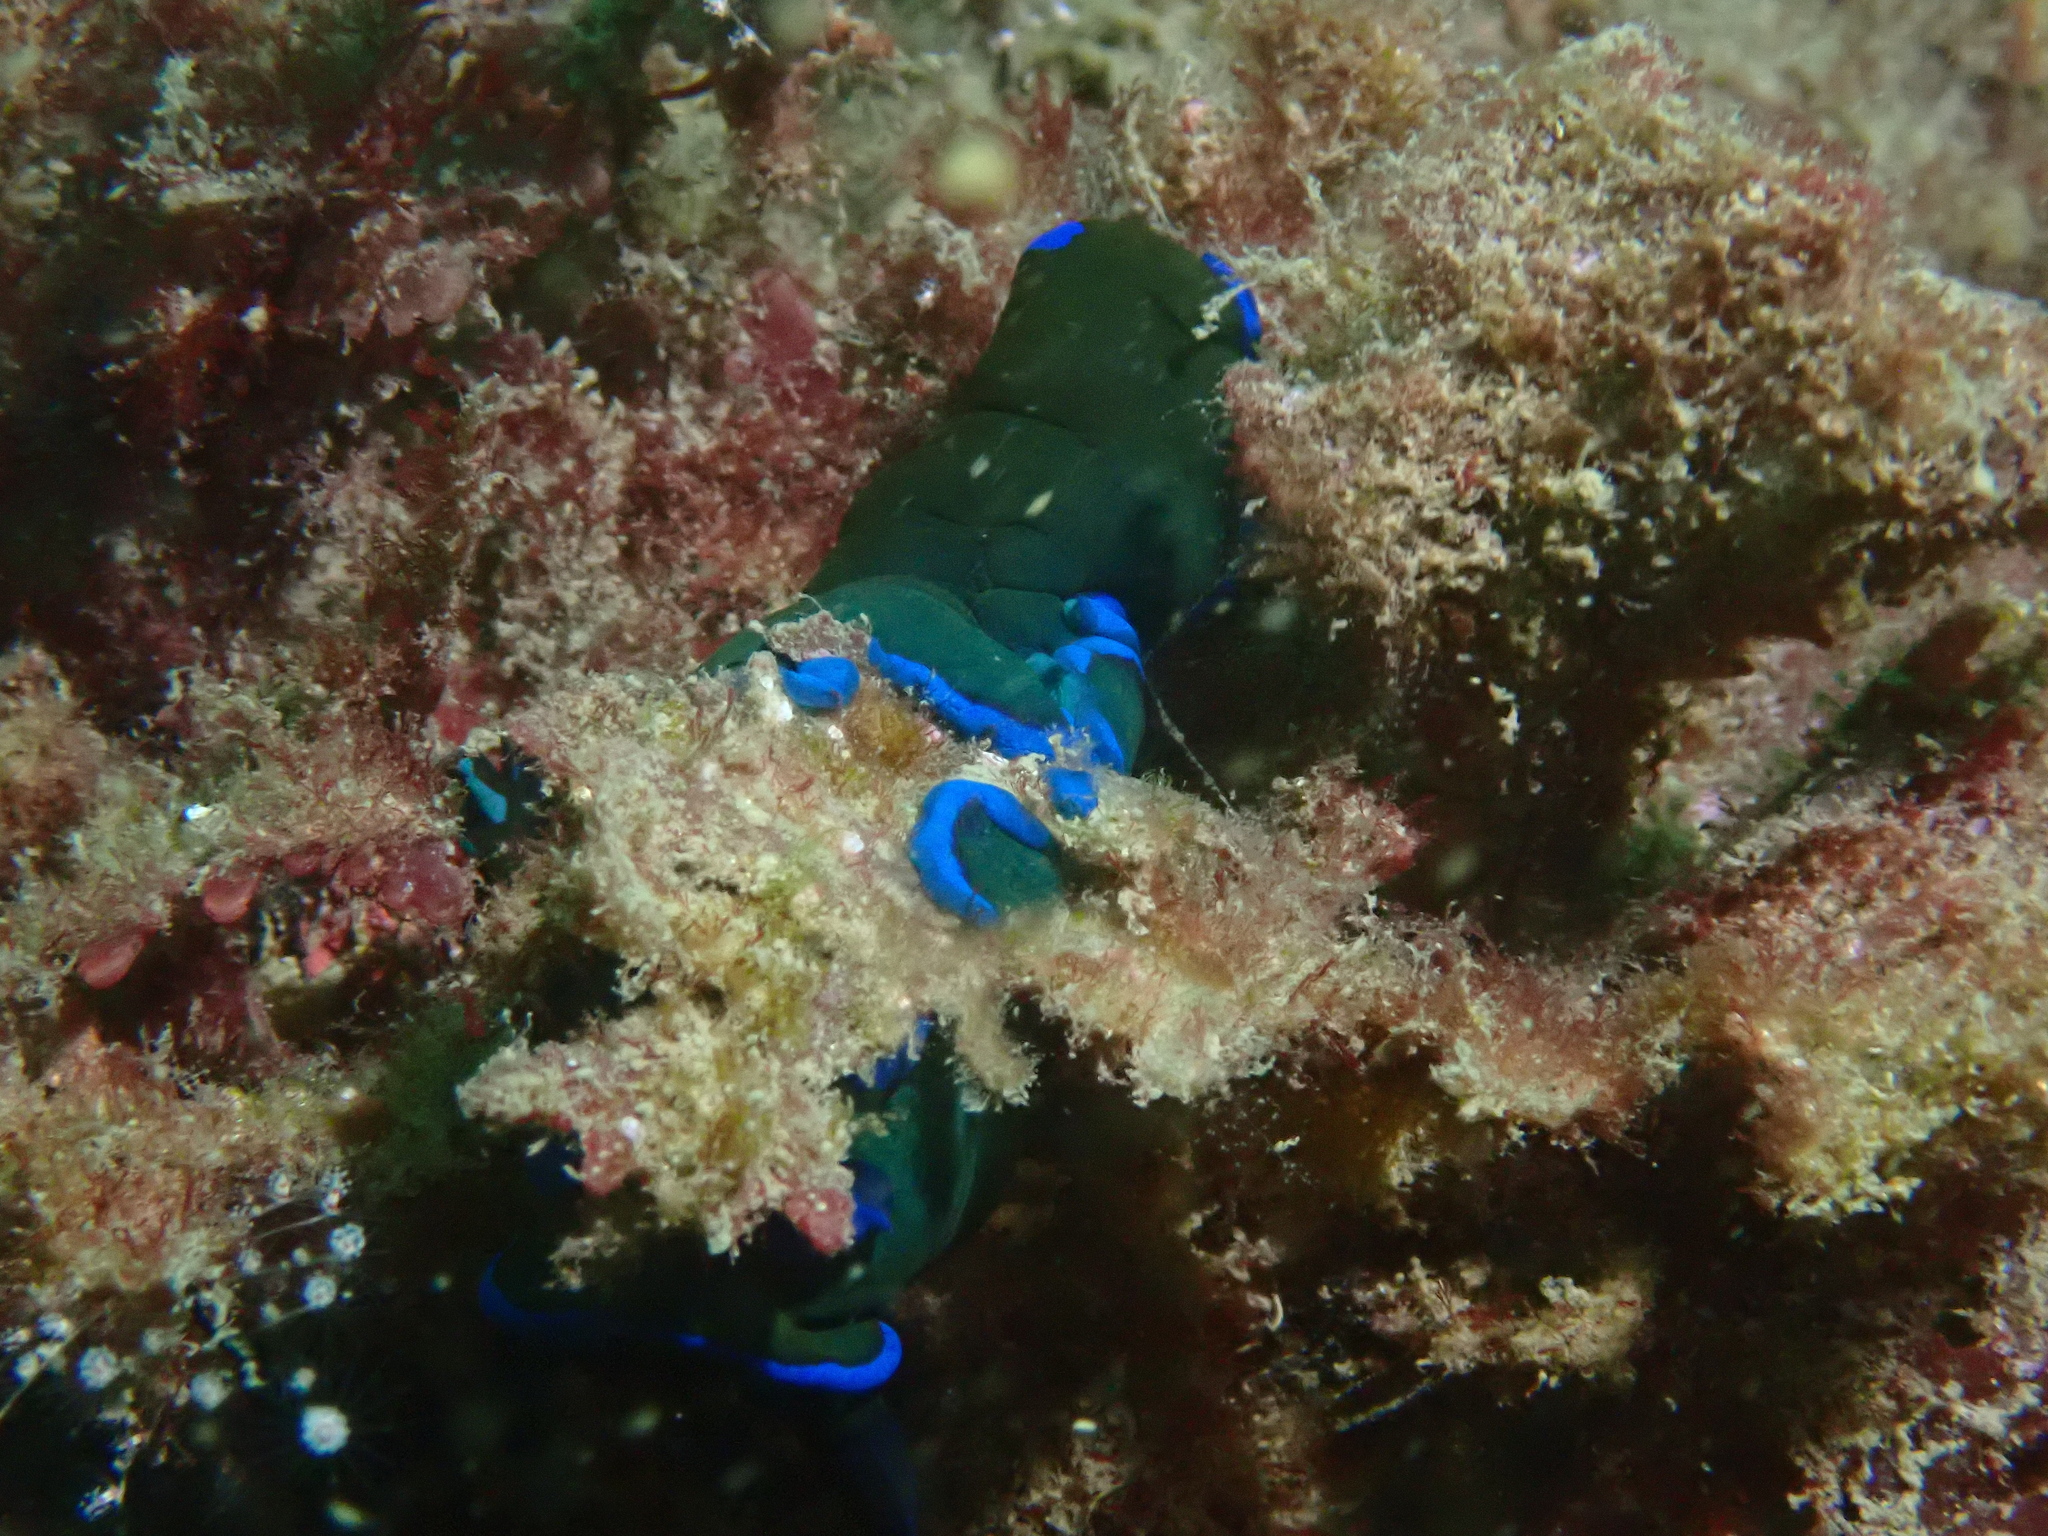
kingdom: Animalia
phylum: Mollusca
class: Gastropoda
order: Nudibranchia
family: Polyceridae
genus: Tambja
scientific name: Tambja morosa
